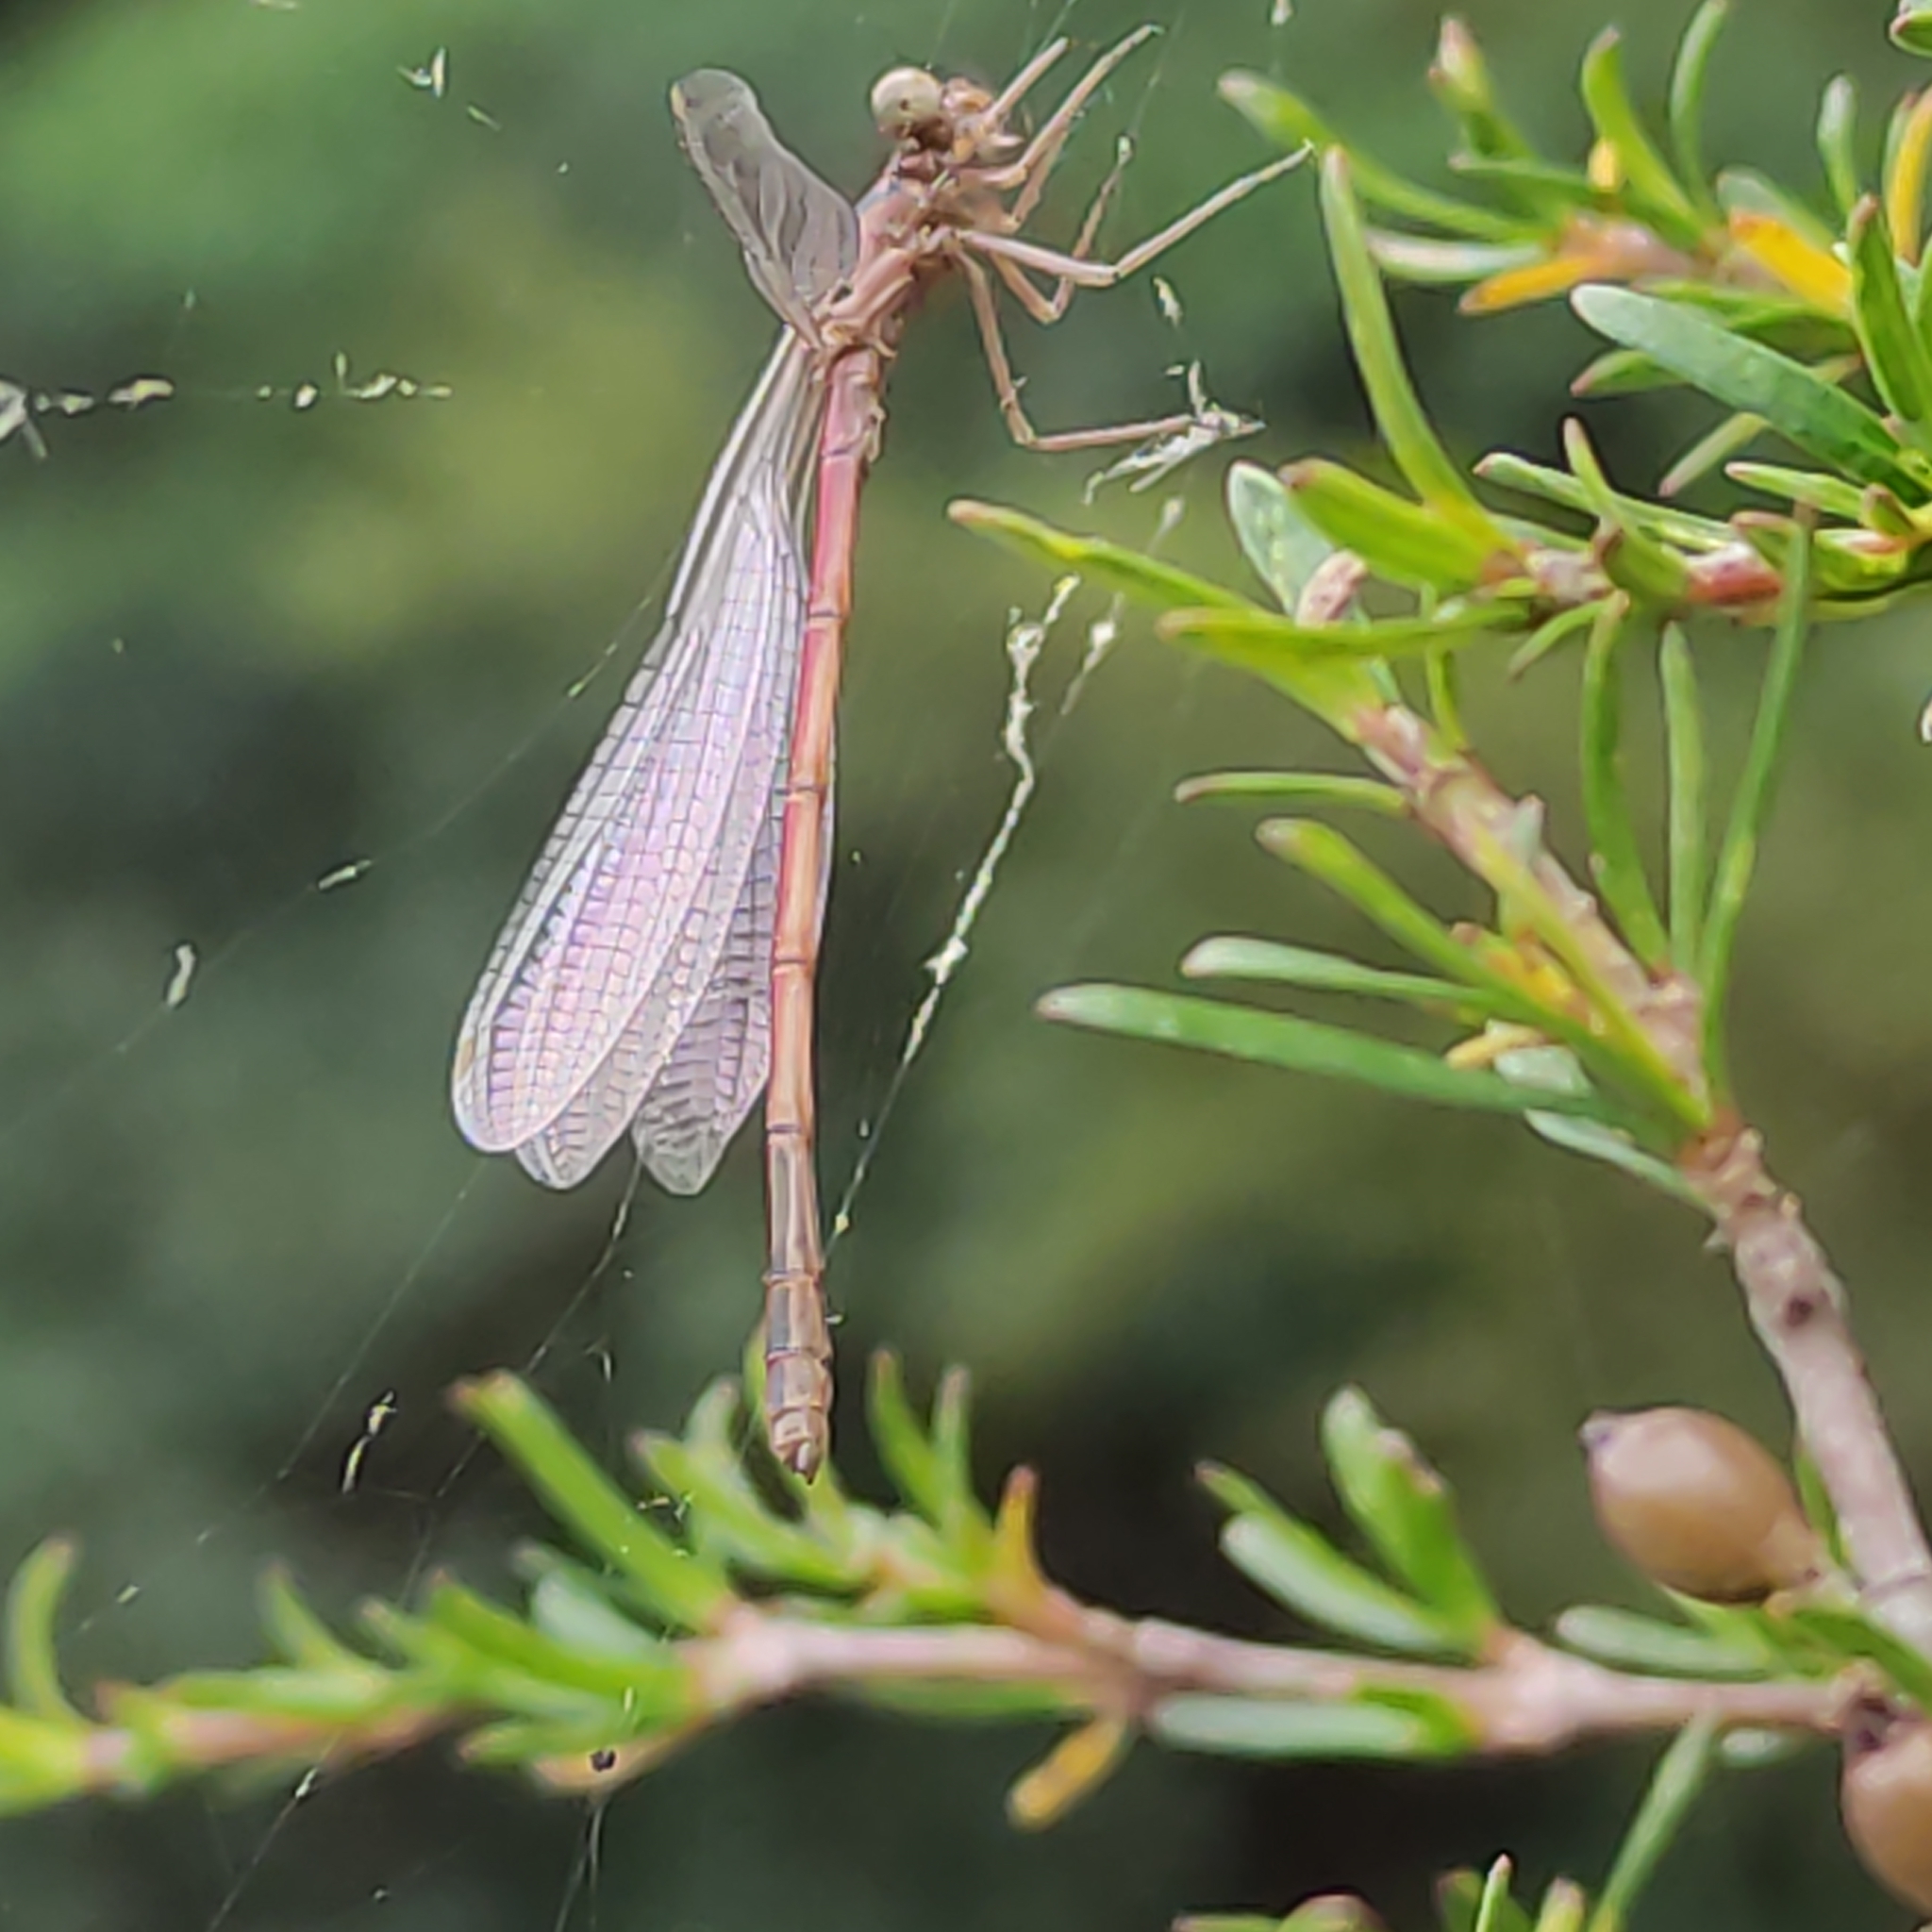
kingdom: Animalia
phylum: Arthropoda
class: Insecta
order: Odonata
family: Coenagrionidae
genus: Xanthocnemis
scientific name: Xanthocnemis zealandica
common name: Common redcoat damselfly
